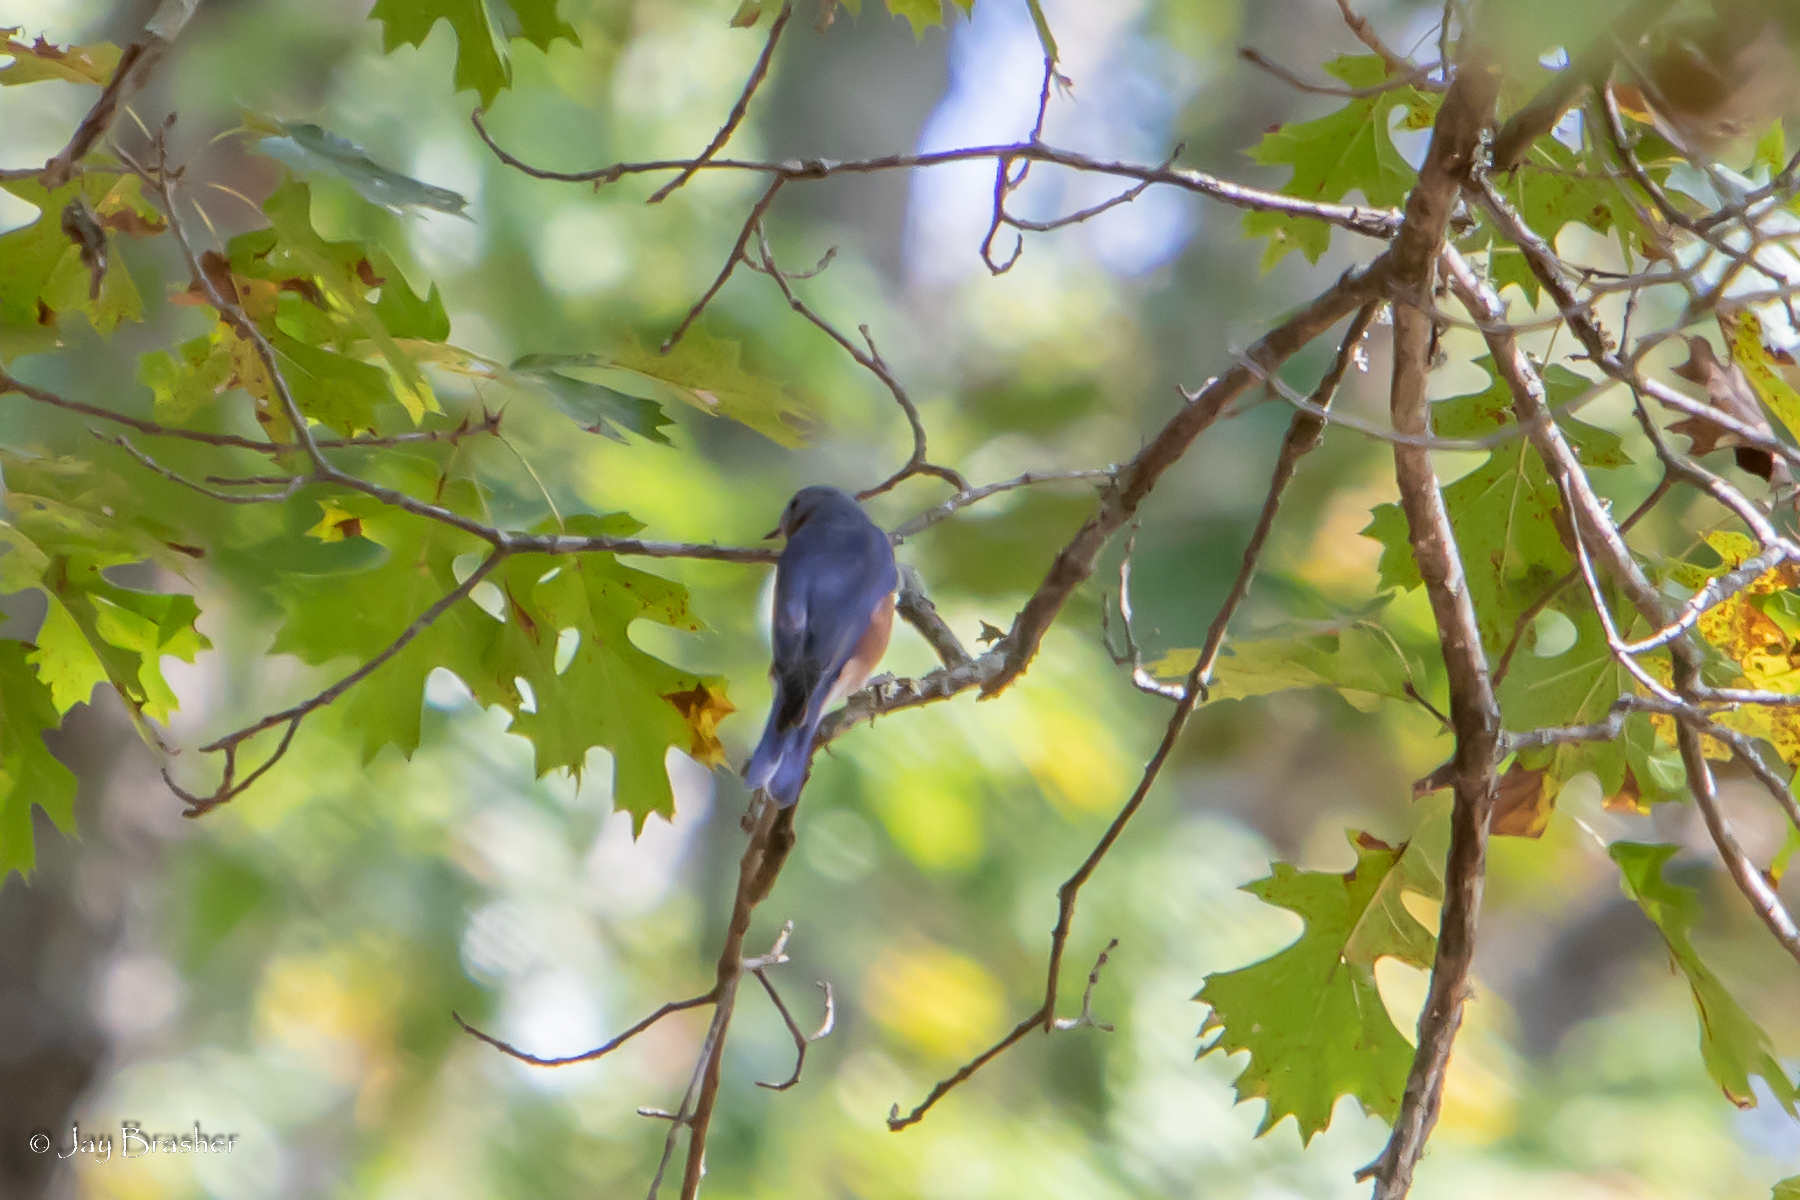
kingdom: Animalia
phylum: Chordata
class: Aves
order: Passeriformes
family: Turdidae
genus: Sialia
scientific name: Sialia sialis
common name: Eastern bluebird
